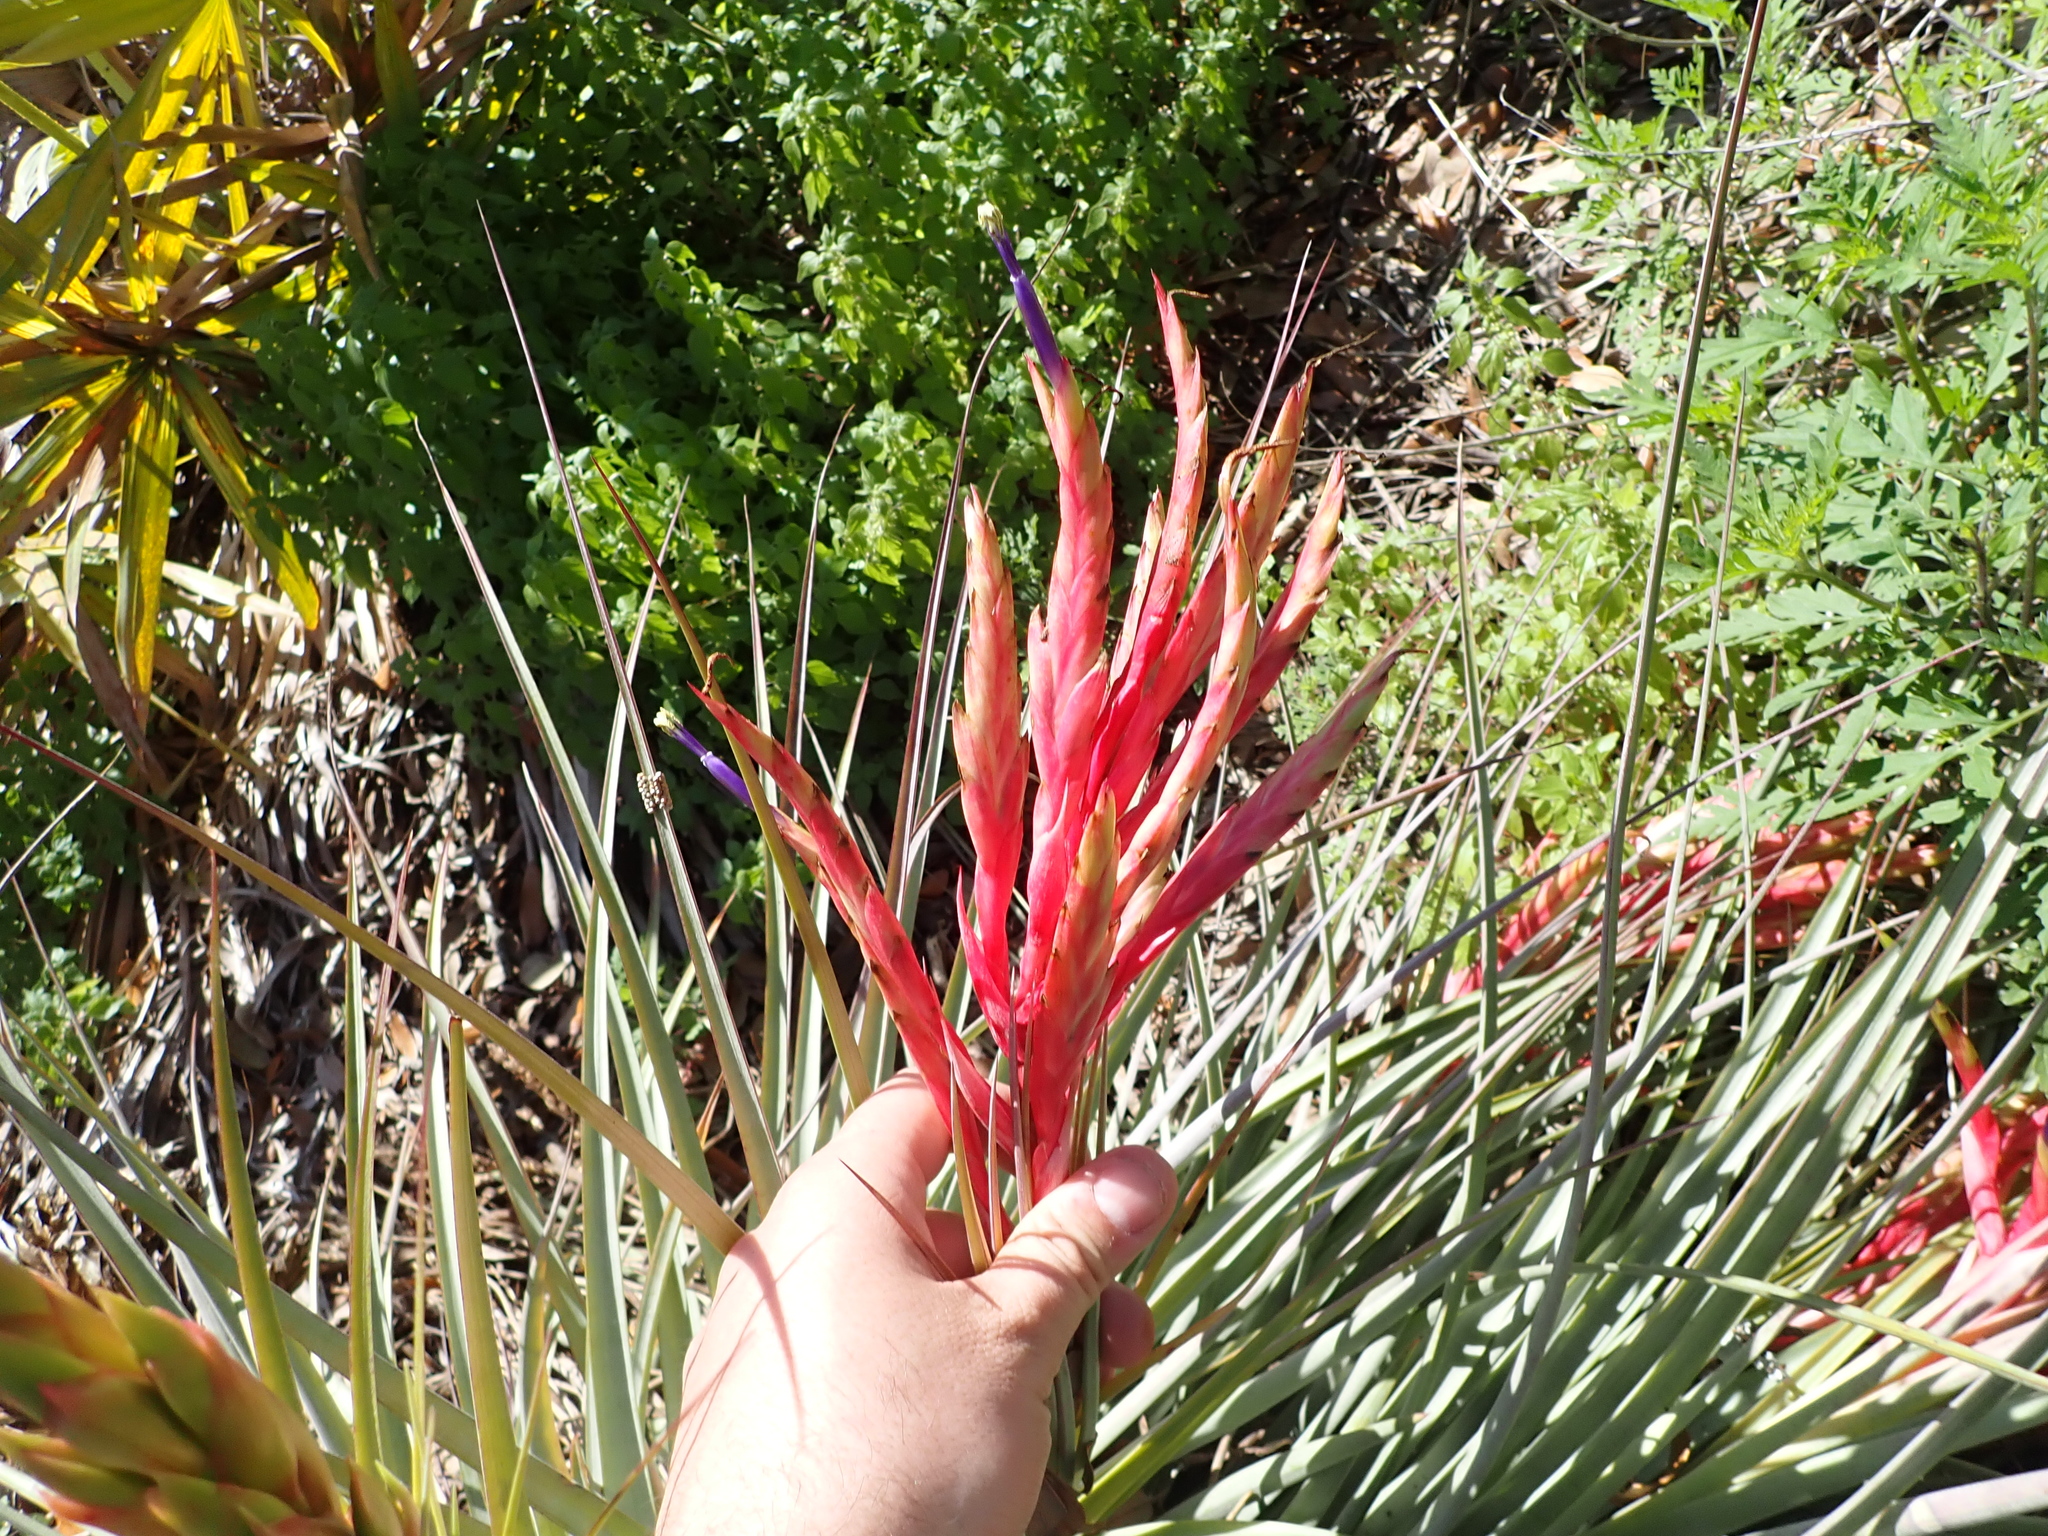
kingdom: Plantae
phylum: Tracheophyta
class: Liliopsida
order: Poales
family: Bromeliaceae
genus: Tillandsia
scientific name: Tillandsia fasciculata
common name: Giant airplant
